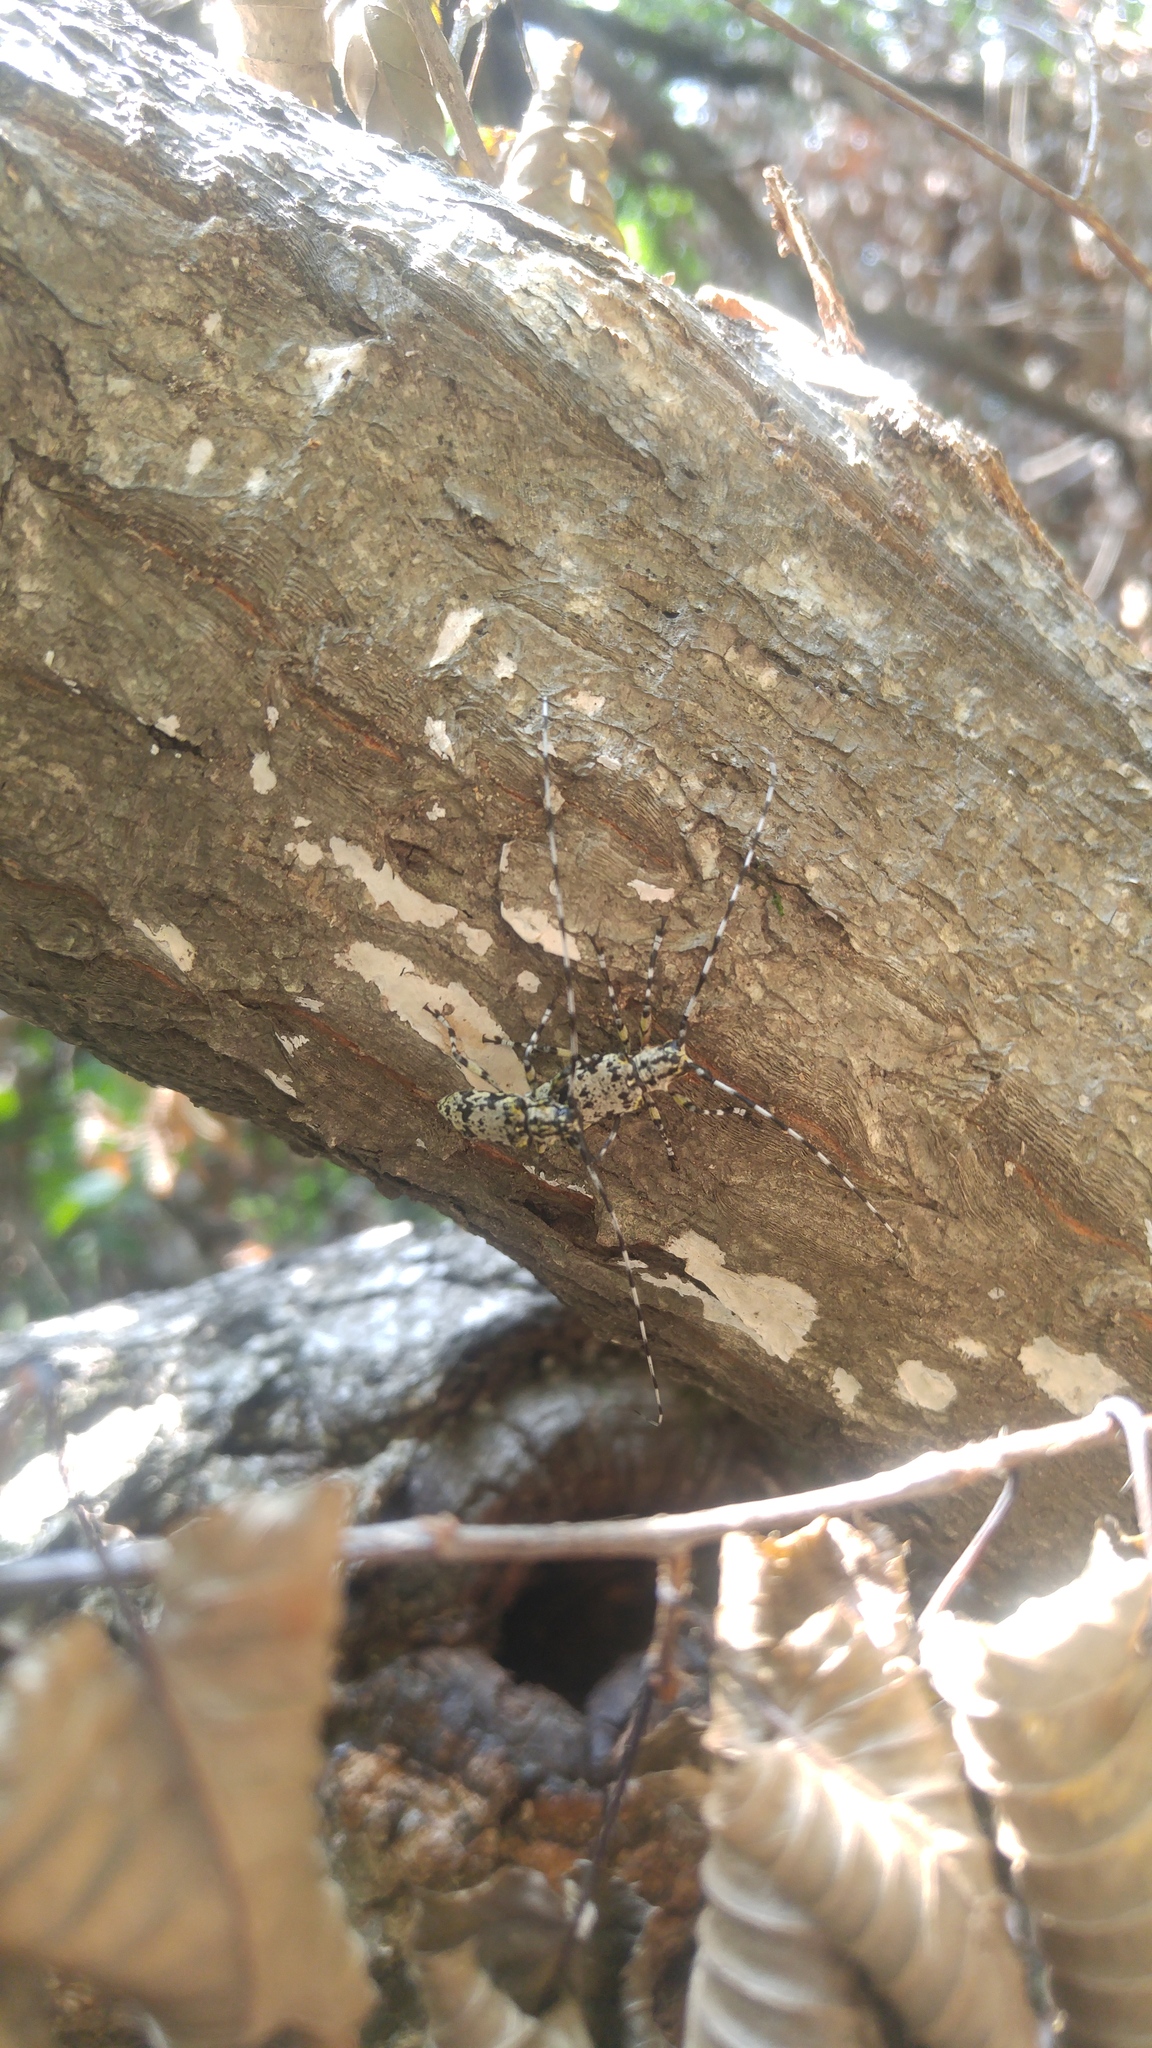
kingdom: Animalia
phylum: Arthropoda
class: Insecta
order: Coleoptera
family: Cerambycidae
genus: Palimna
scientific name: Palimna liturata
